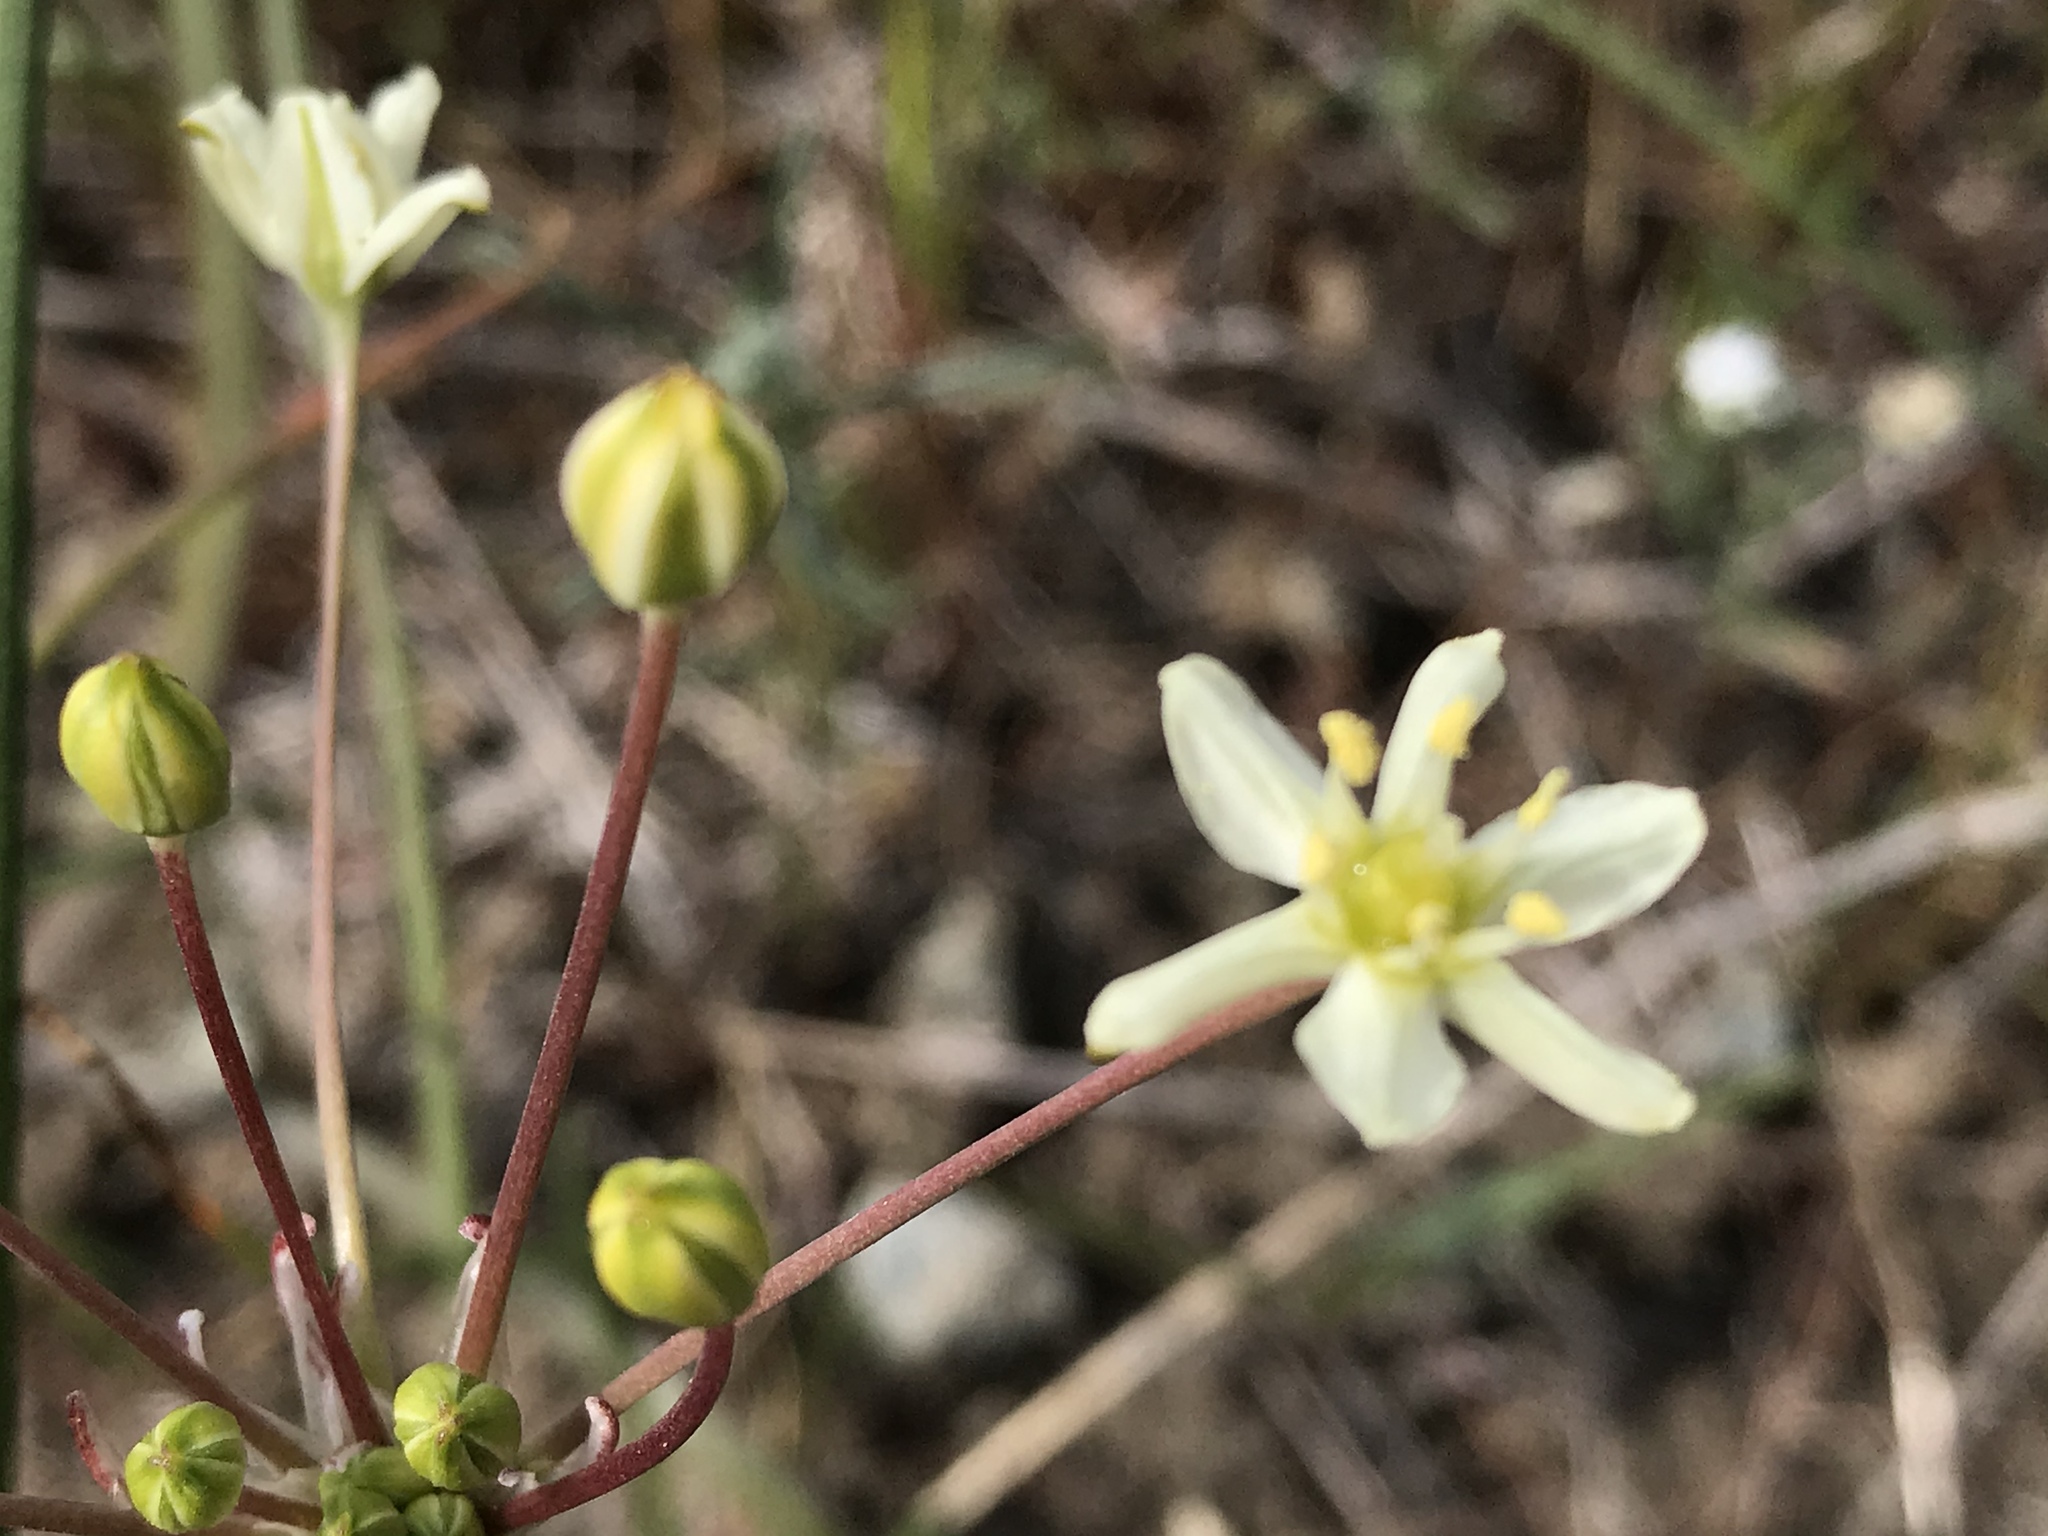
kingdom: Plantae
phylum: Tracheophyta
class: Liliopsida
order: Asparagales
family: Asparagaceae
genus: Muilla
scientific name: Muilla maritima
